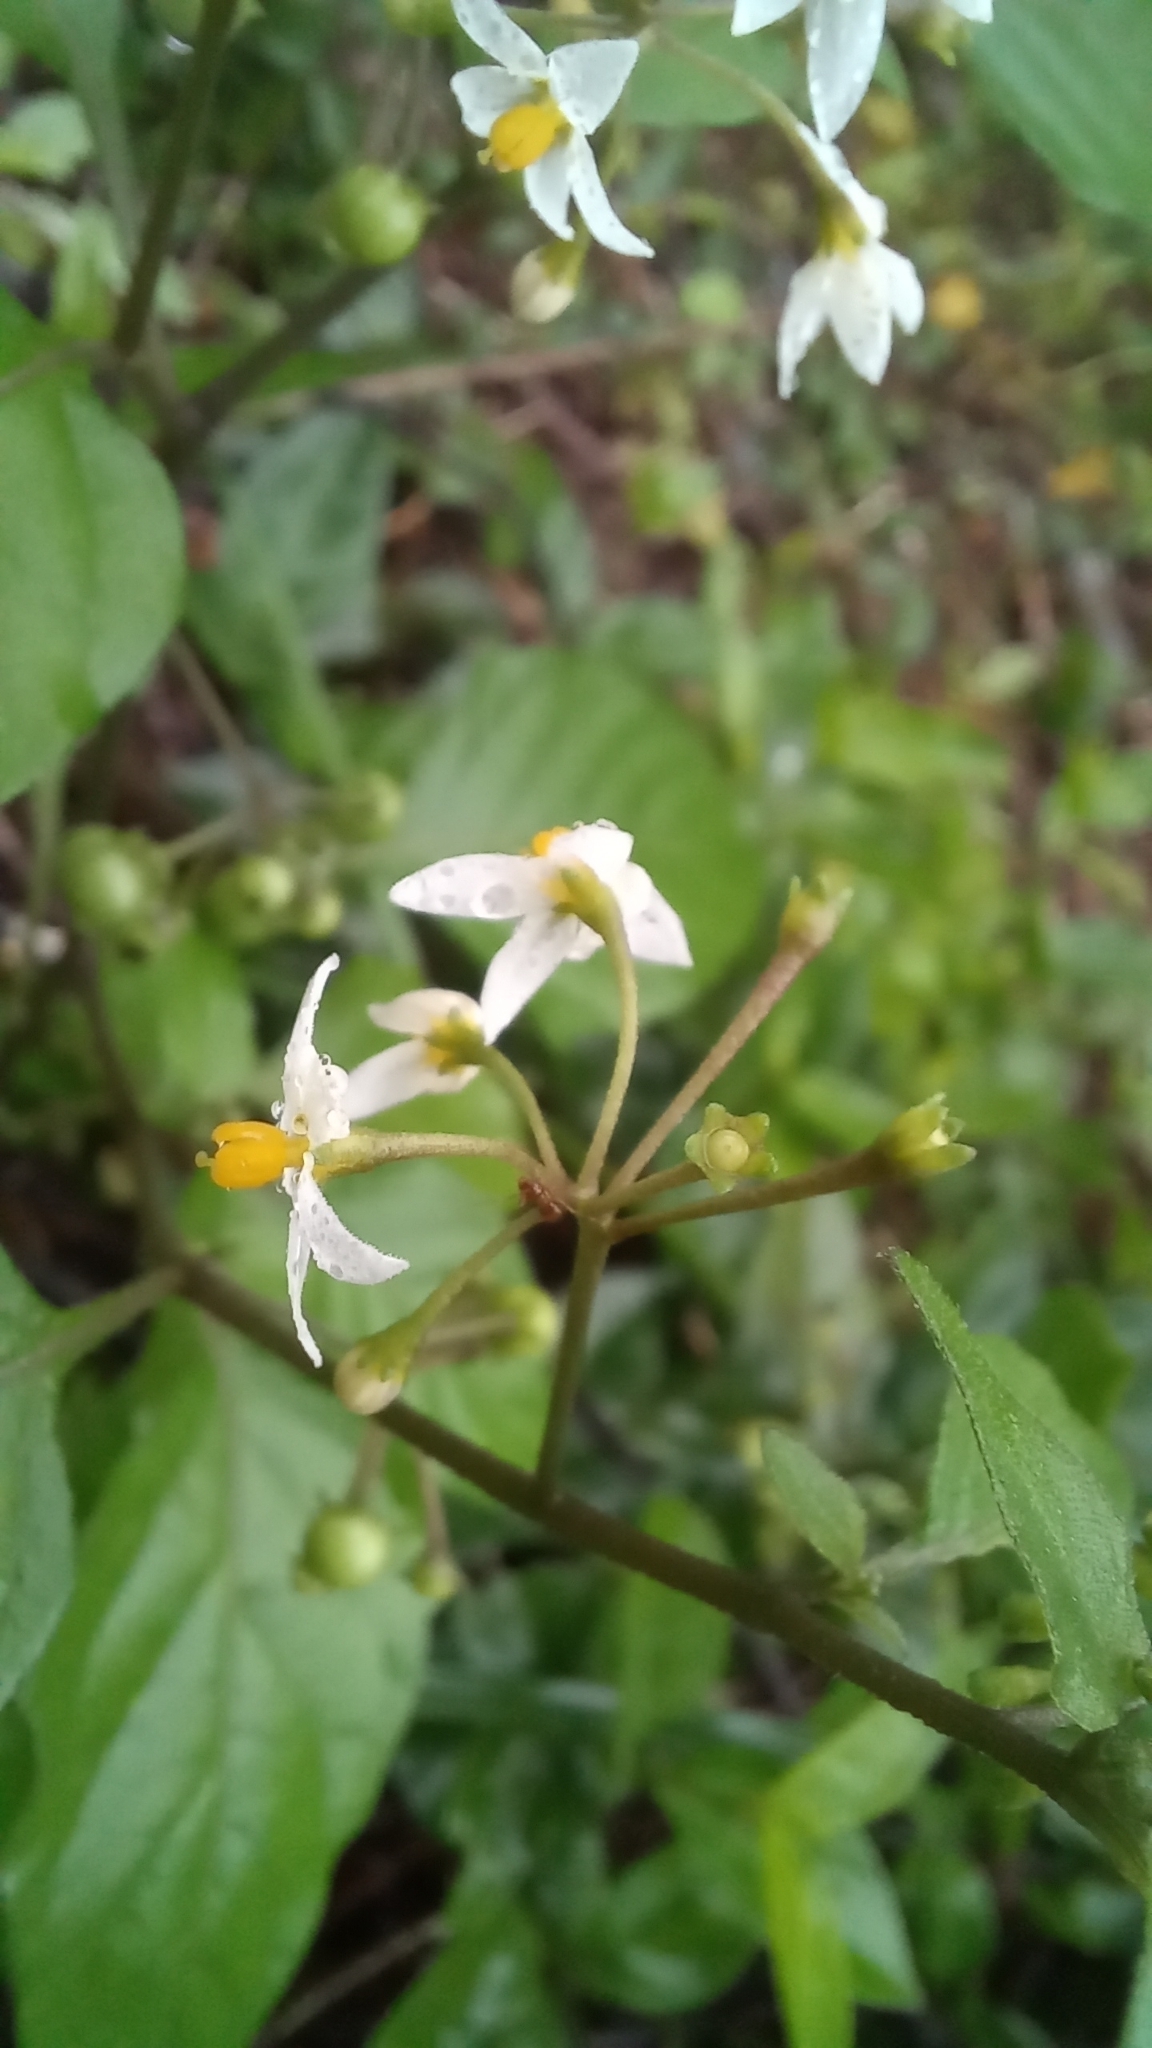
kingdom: Plantae
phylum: Tracheophyta
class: Magnoliopsida
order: Solanales
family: Solanaceae
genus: Solanum
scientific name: Solanum americanum
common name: American black nightshade
